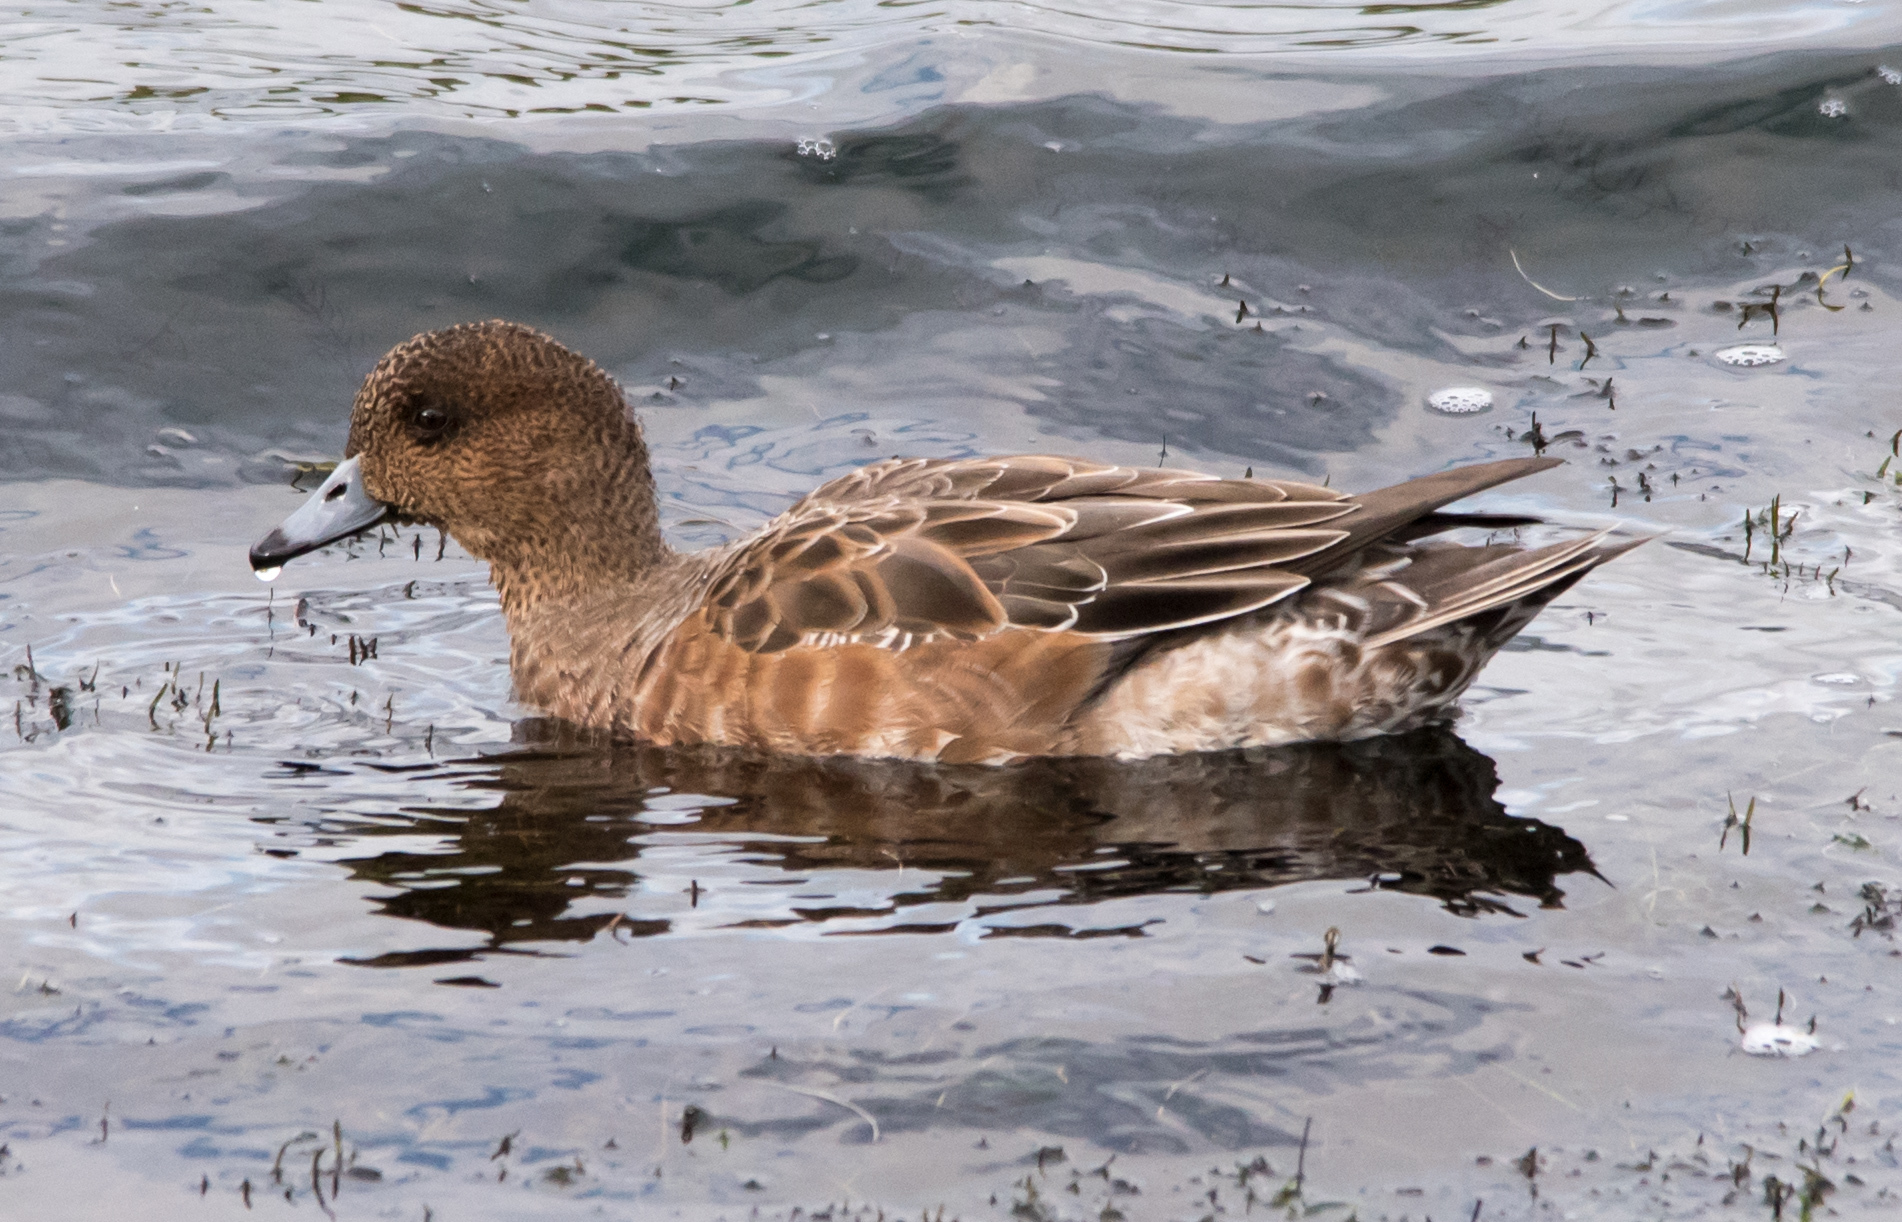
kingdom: Animalia
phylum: Chordata
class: Aves
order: Anseriformes
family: Anatidae
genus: Mareca
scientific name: Mareca penelope
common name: Eurasian wigeon
